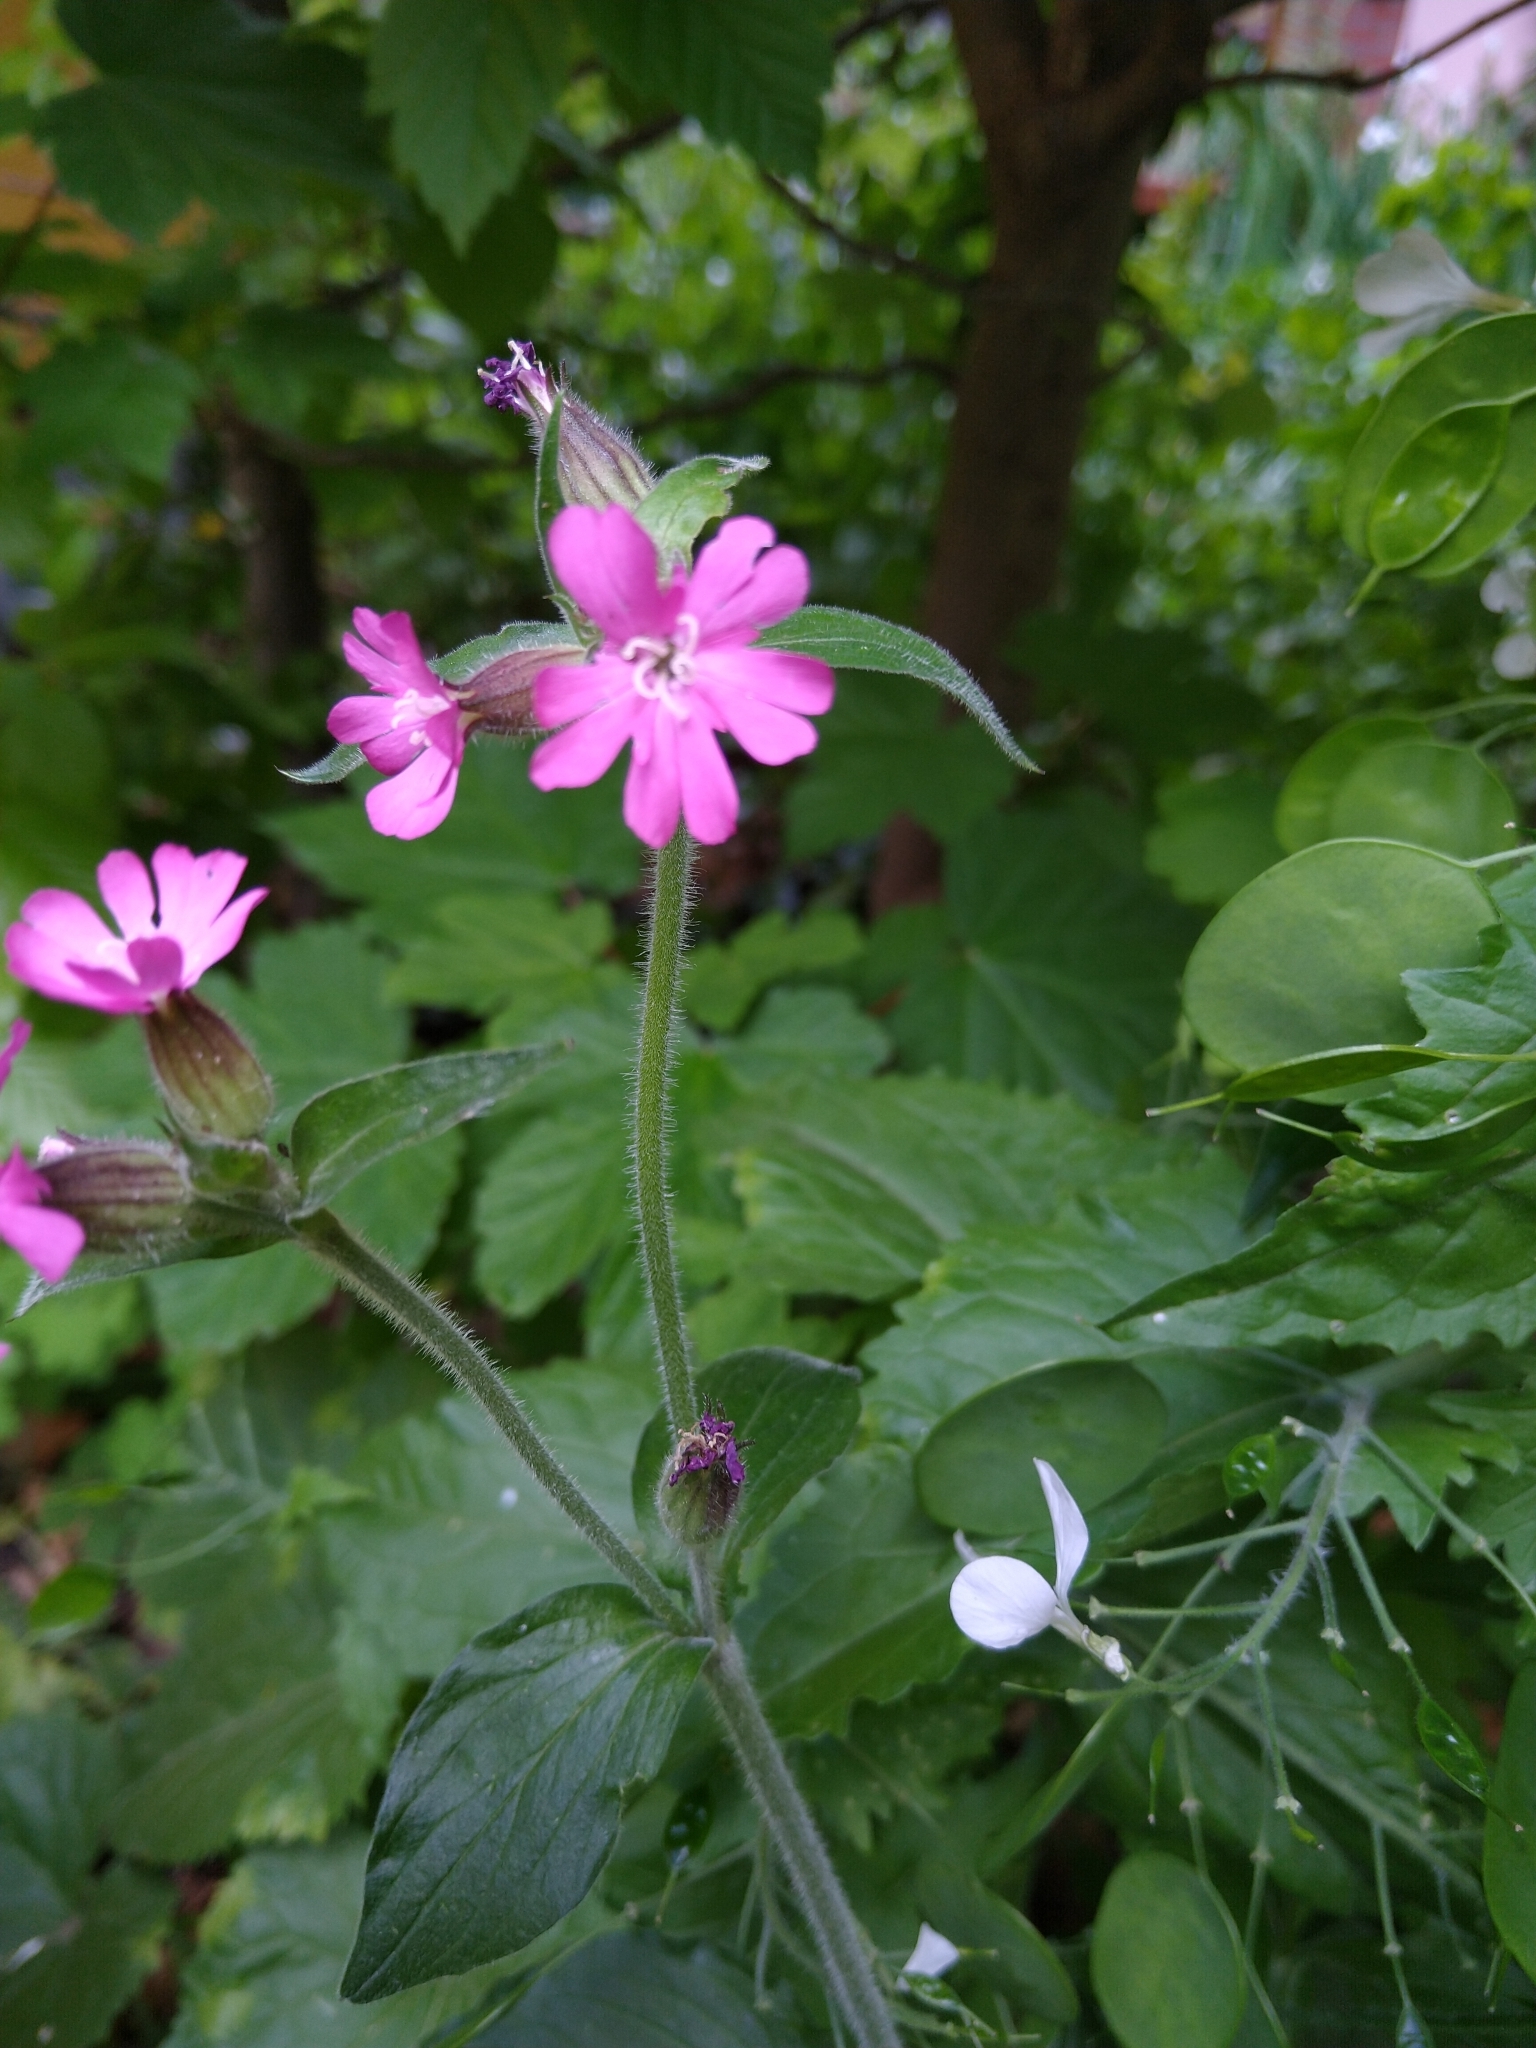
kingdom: Plantae
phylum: Tracheophyta
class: Magnoliopsida
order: Caryophyllales
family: Caryophyllaceae
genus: Silene
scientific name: Silene dioica
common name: Red campion
